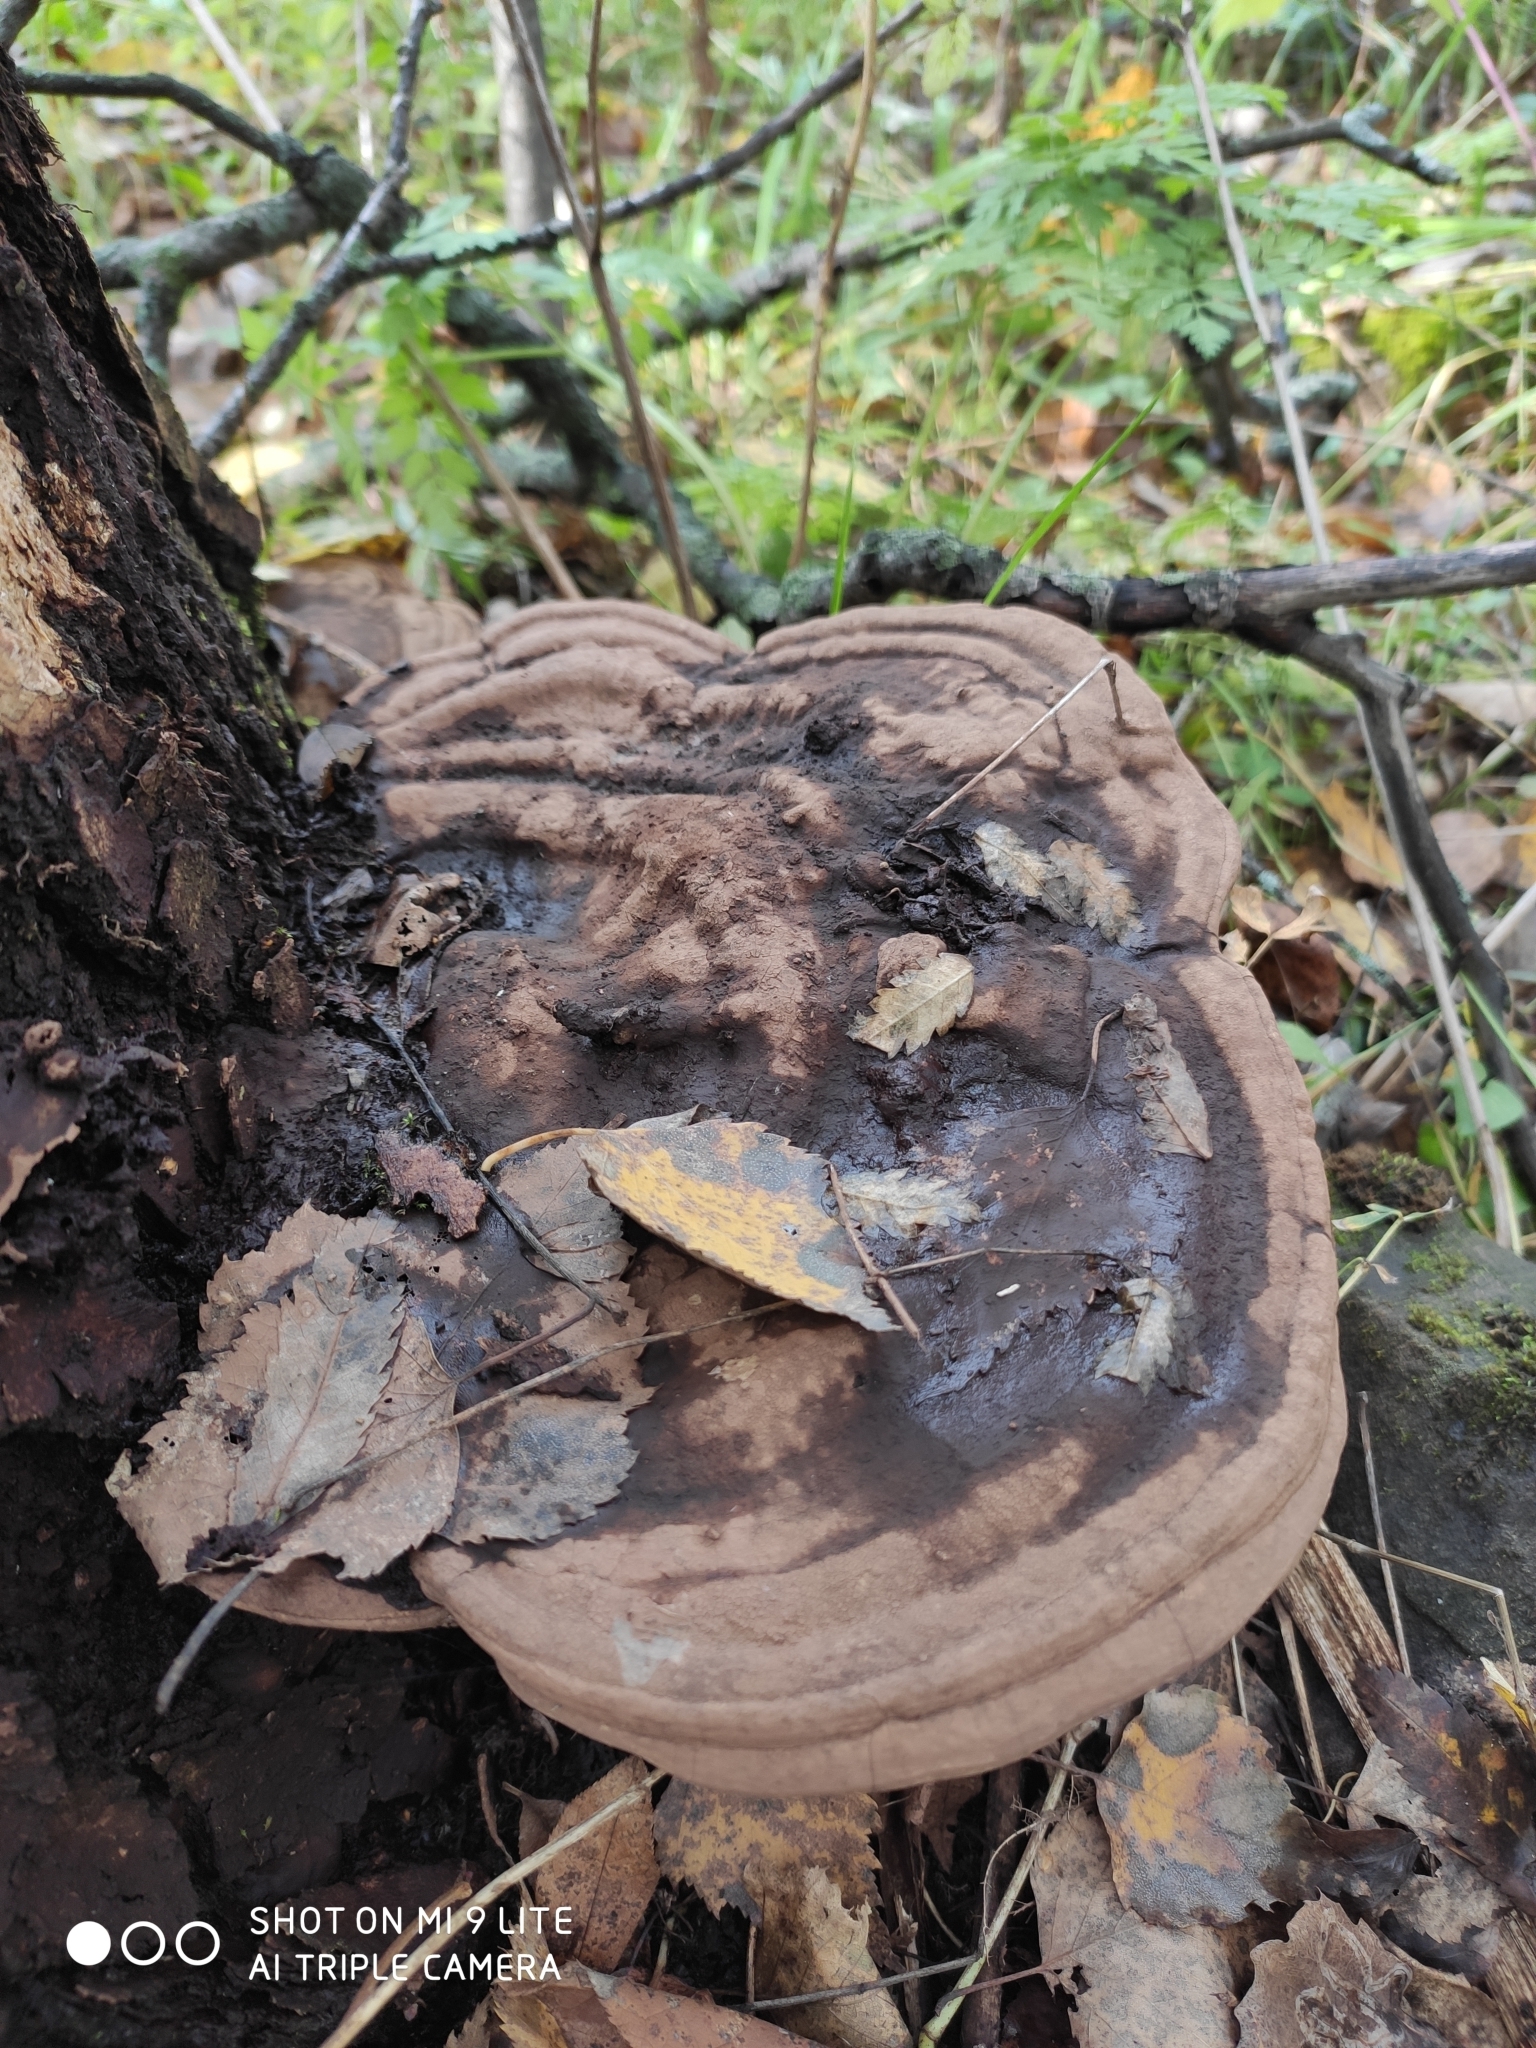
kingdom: Fungi
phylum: Basidiomycota
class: Agaricomycetes
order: Polyporales
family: Polyporaceae
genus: Ganoderma
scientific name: Ganoderma applanatum
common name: Artist's bracket
